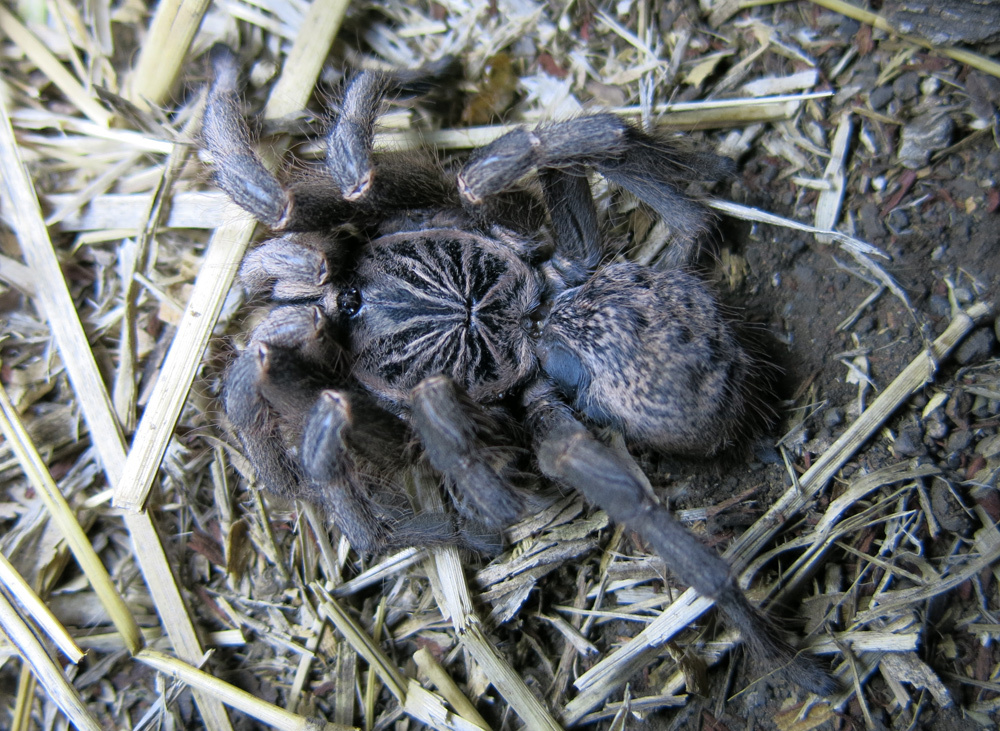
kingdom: Animalia
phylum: Arthropoda
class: Arachnida
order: Araneae
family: Theraphosidae
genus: Idiothele
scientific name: Idiothele nigrofulva
